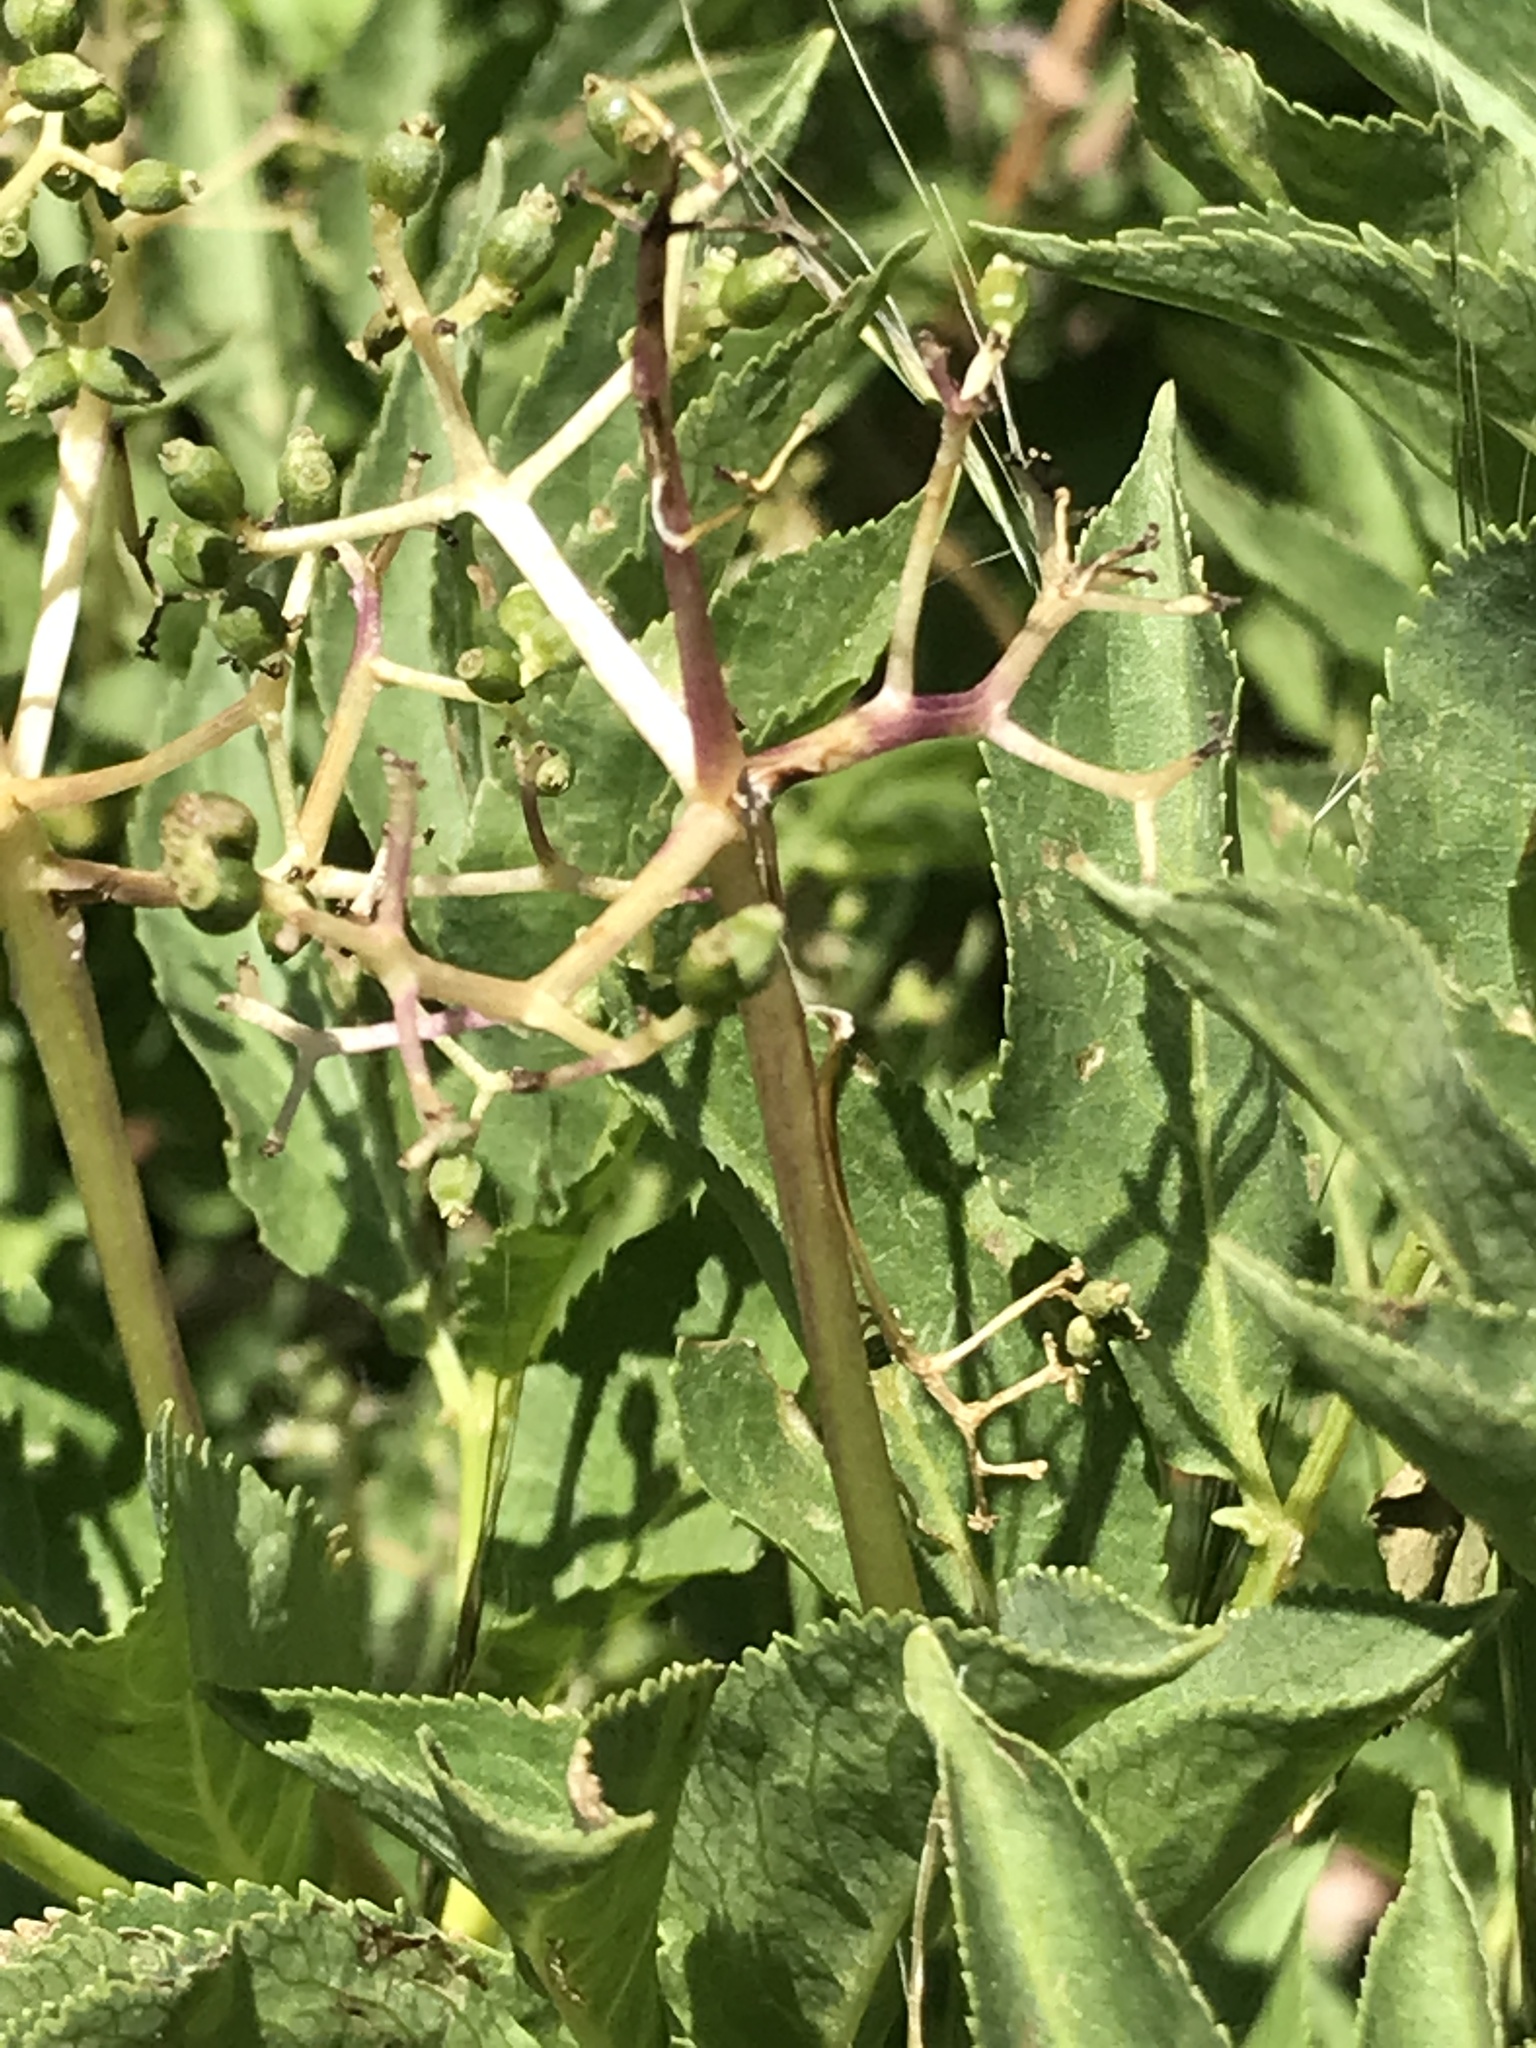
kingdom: Plantae
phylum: Tracheophyta
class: Magnoliopsida
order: Dipsacales
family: Viburnaceae
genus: Sambucus
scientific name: Sambucus racemosa
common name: Red-berried elder
